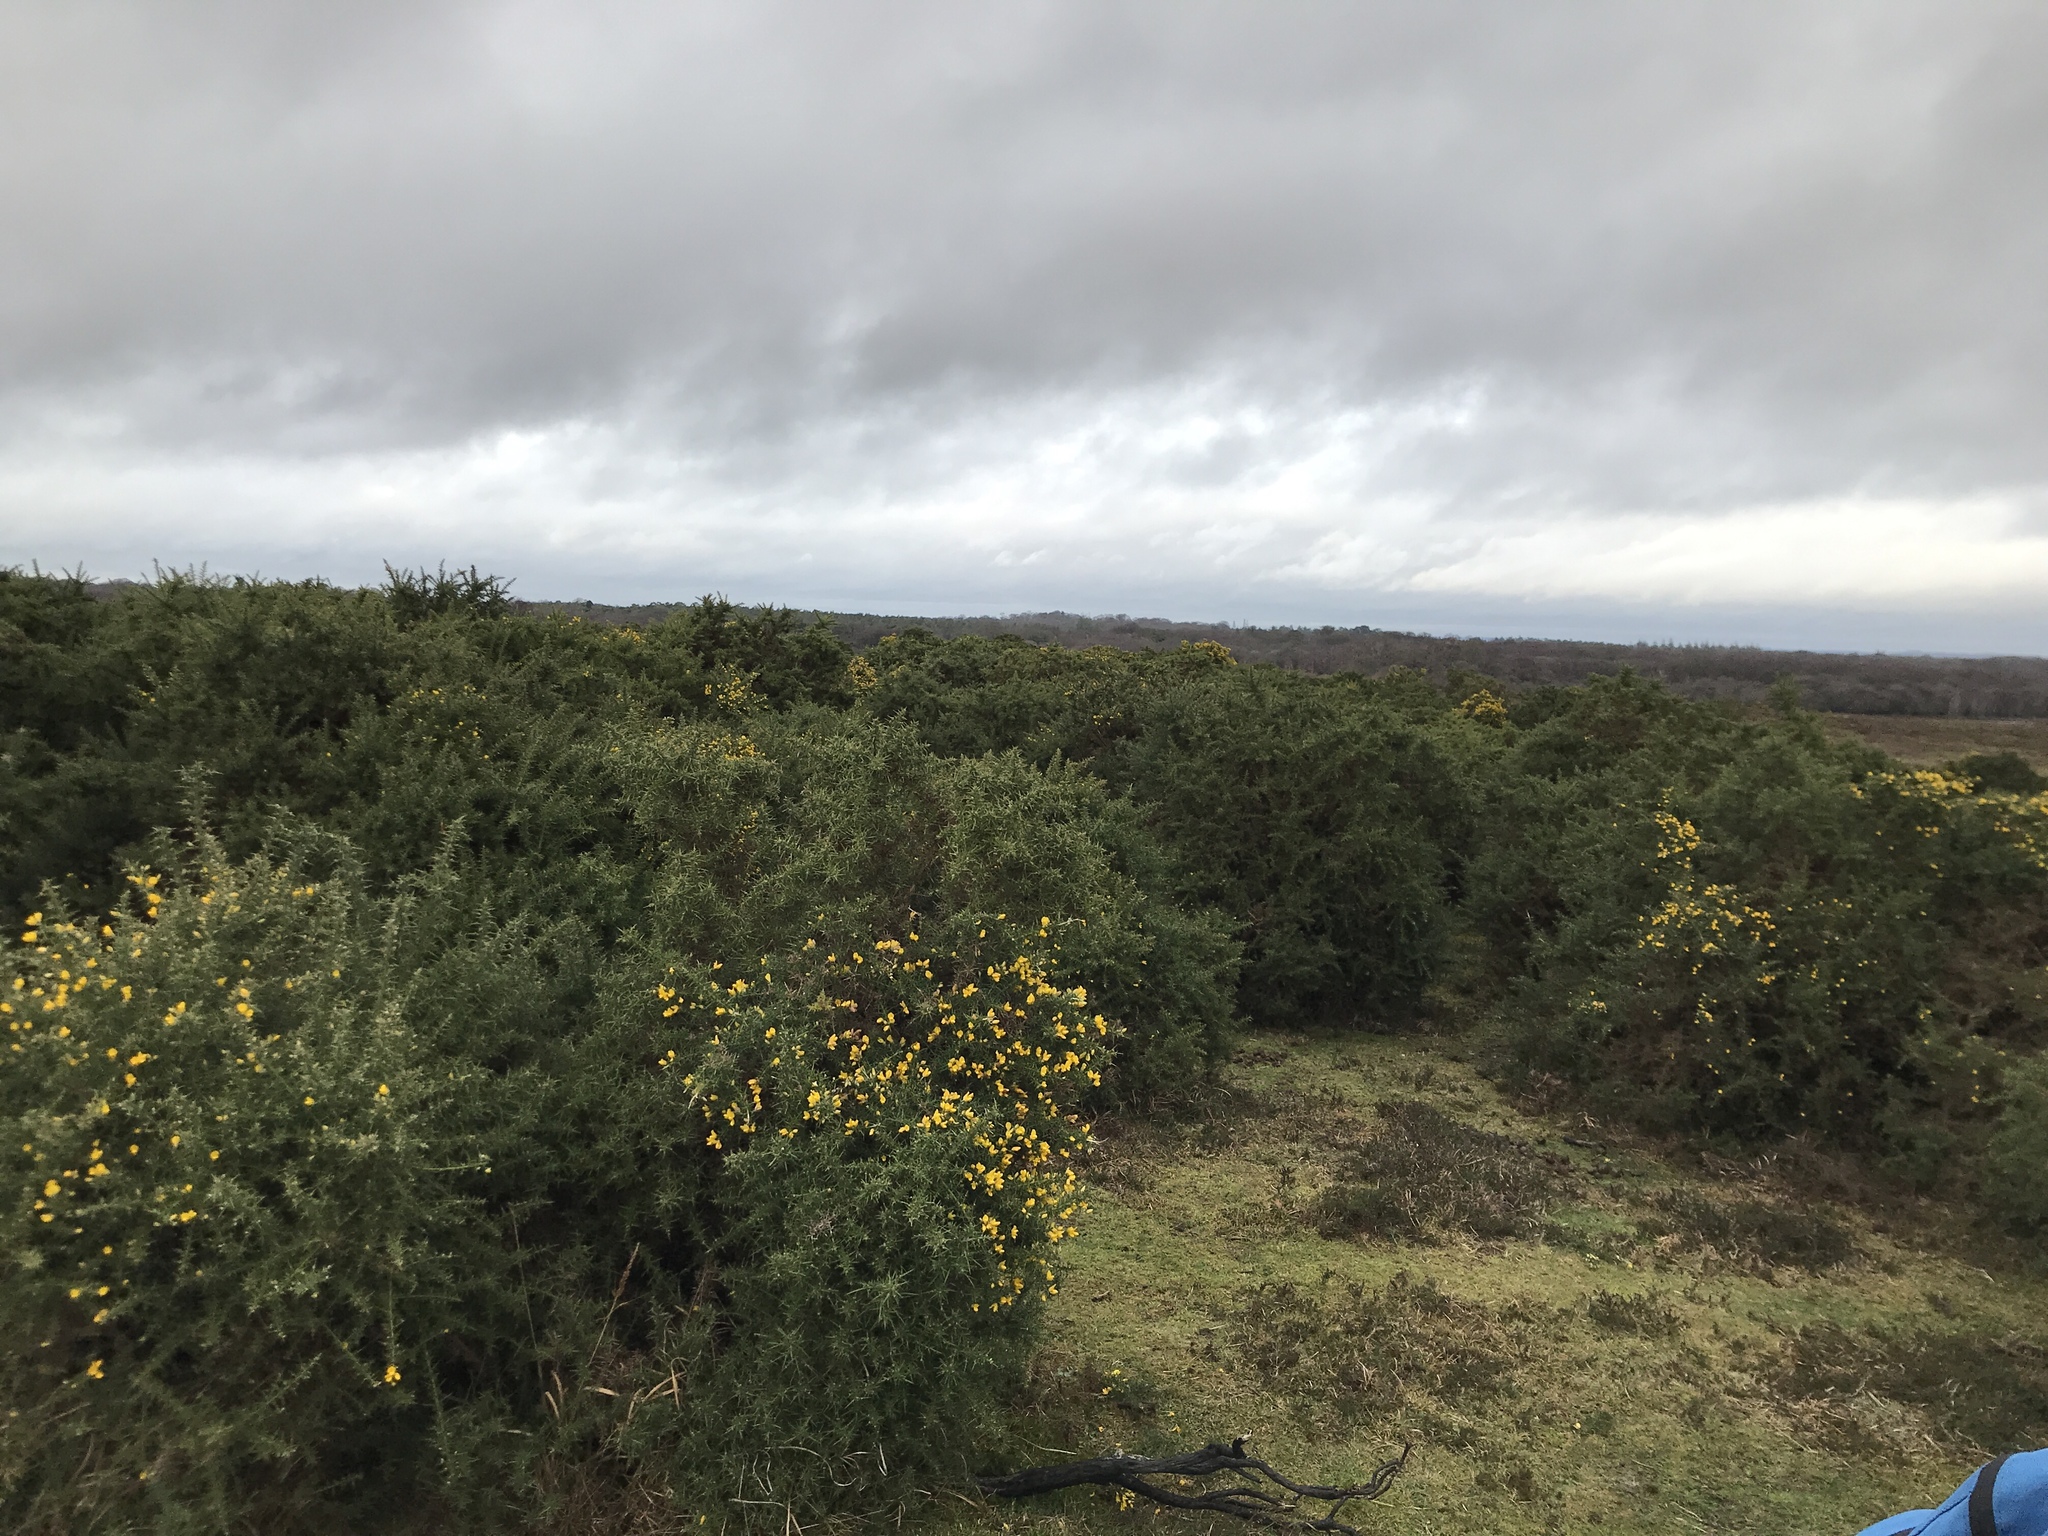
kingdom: Plantae
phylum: Tracheophyta
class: Magnoliopsida
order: Fabales
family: Fabaceae
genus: Ulex
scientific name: Ulex europaeus
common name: Common gorse
